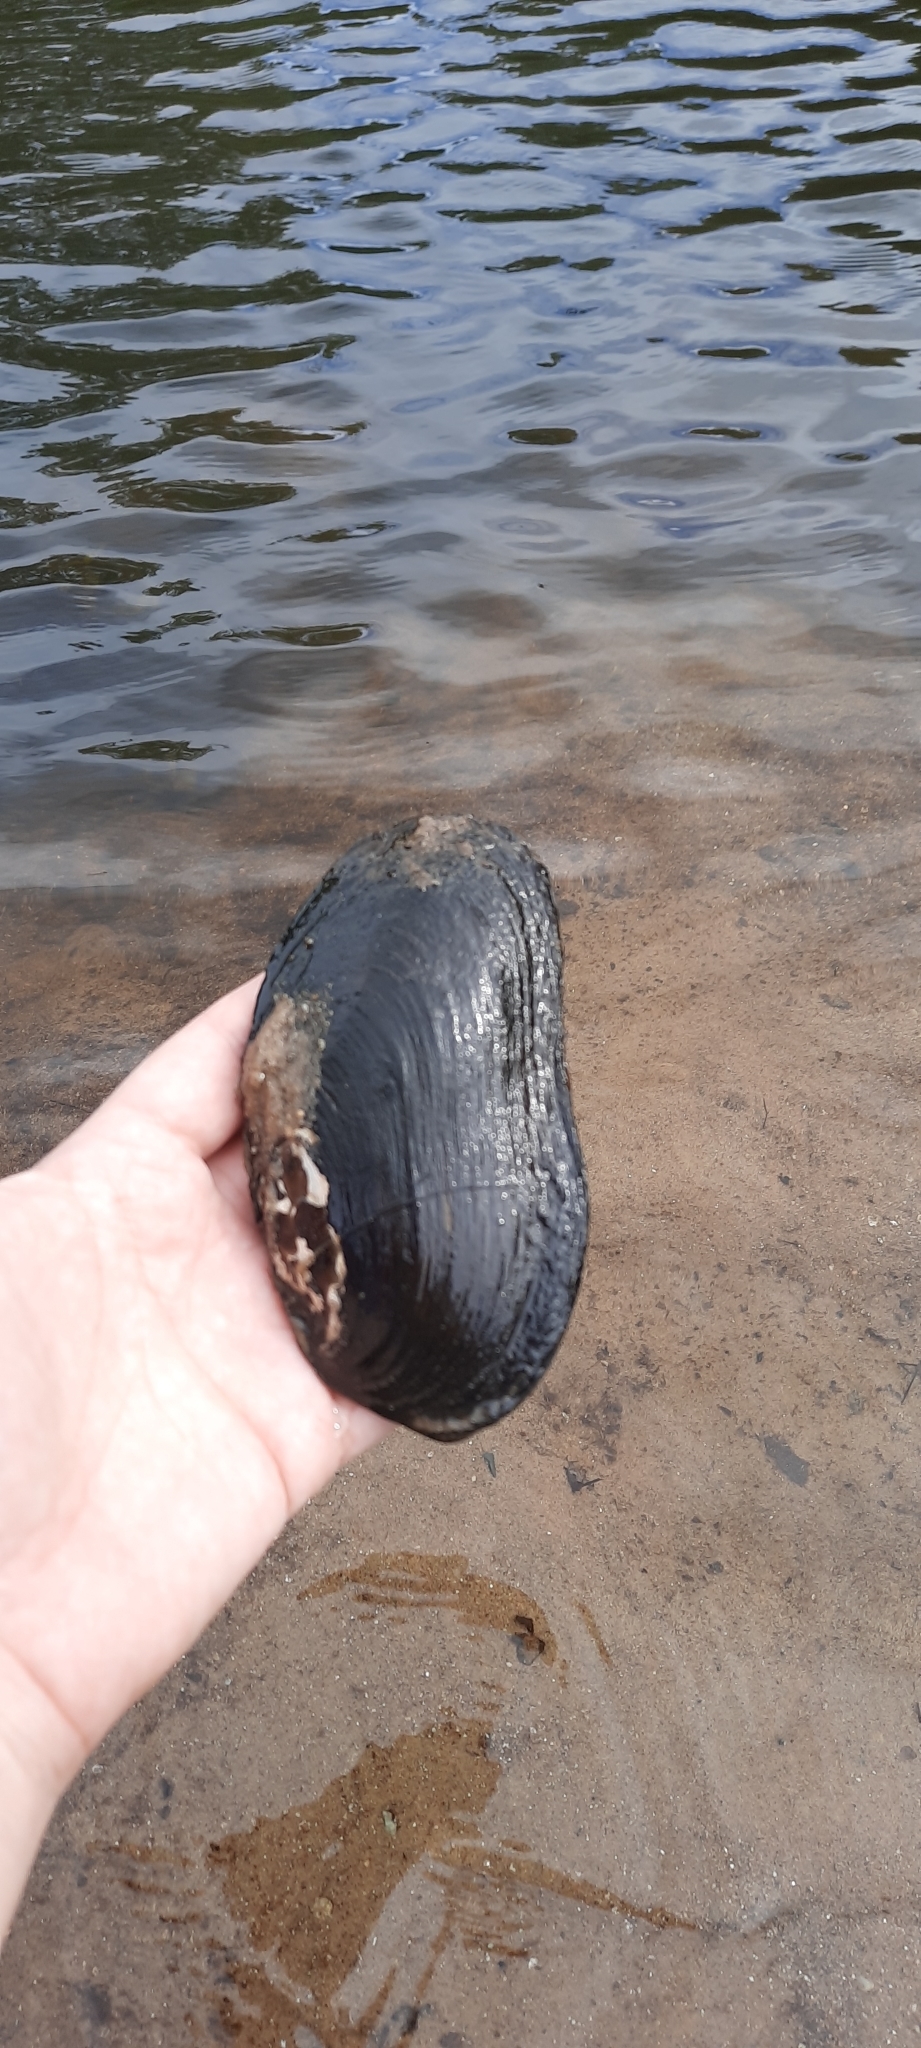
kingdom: Animalia
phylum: Mollusca
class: Bivalvia
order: Unionida
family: Unionidae
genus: Elliptio
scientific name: Elliptio complanata
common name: Eastern elliptio
